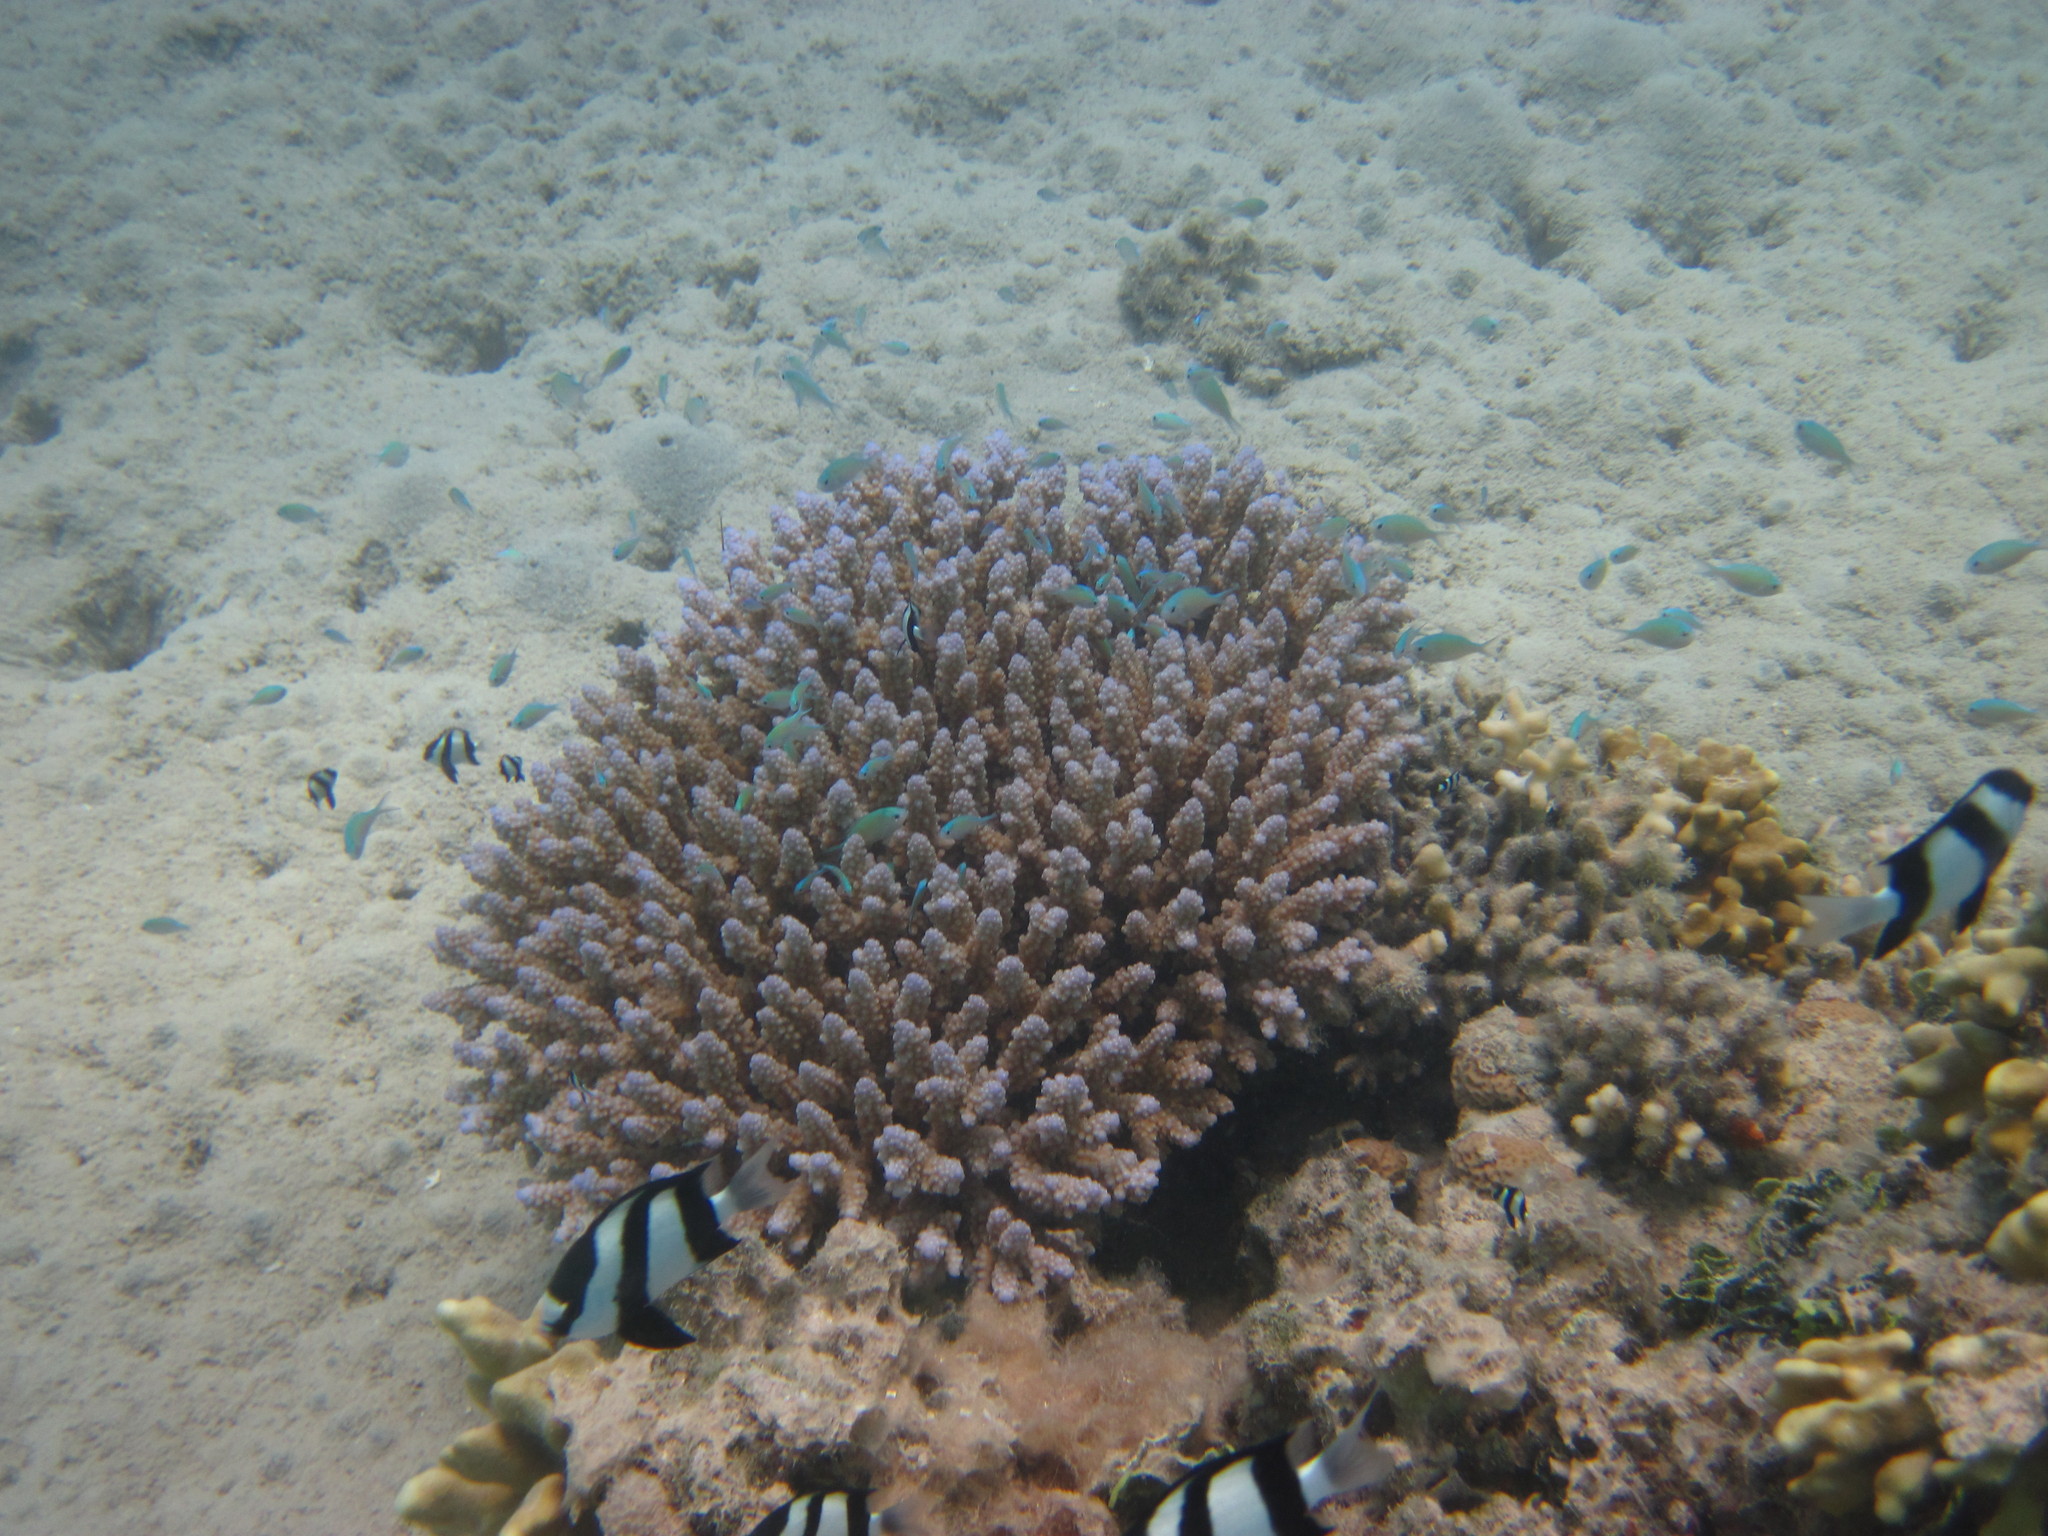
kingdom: Animalia
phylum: Chordata
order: Perciformes
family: Pomacentridae
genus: Dascyllus
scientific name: Dascyllus abudafur
